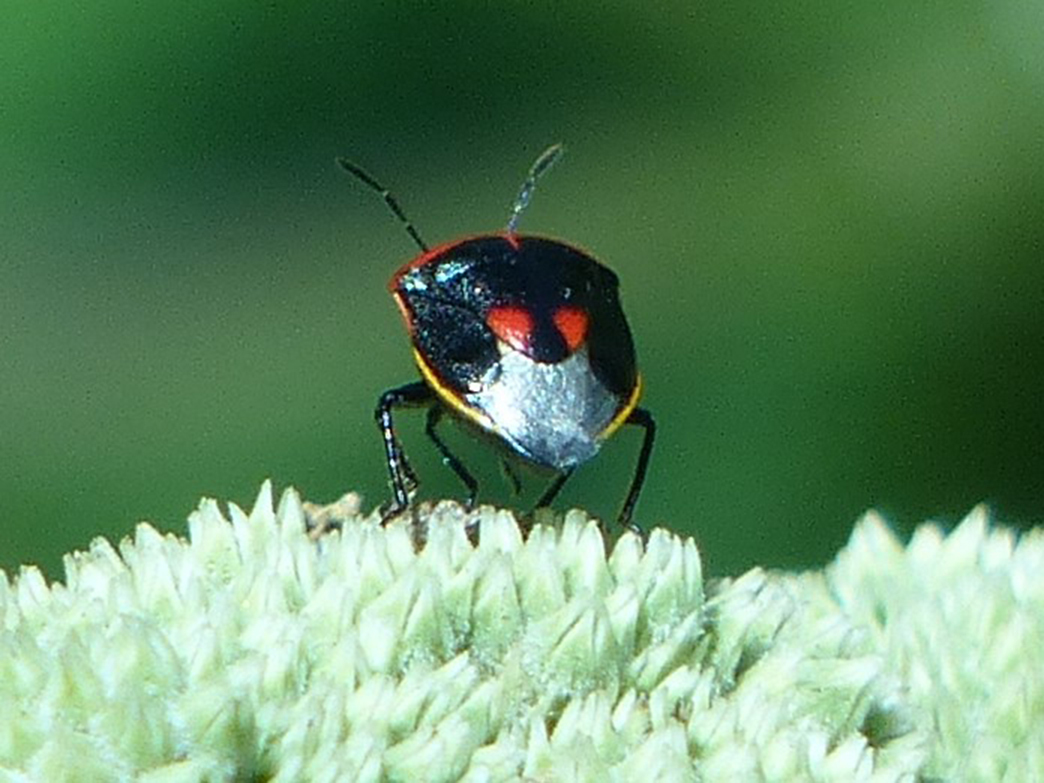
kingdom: Animalia
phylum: Arthropoda
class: Insecta
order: Hemiptera
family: Pentatomidae
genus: Cosmopepla
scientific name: Cosmopepla lintneriana
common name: Twice-stabbed stink bug
